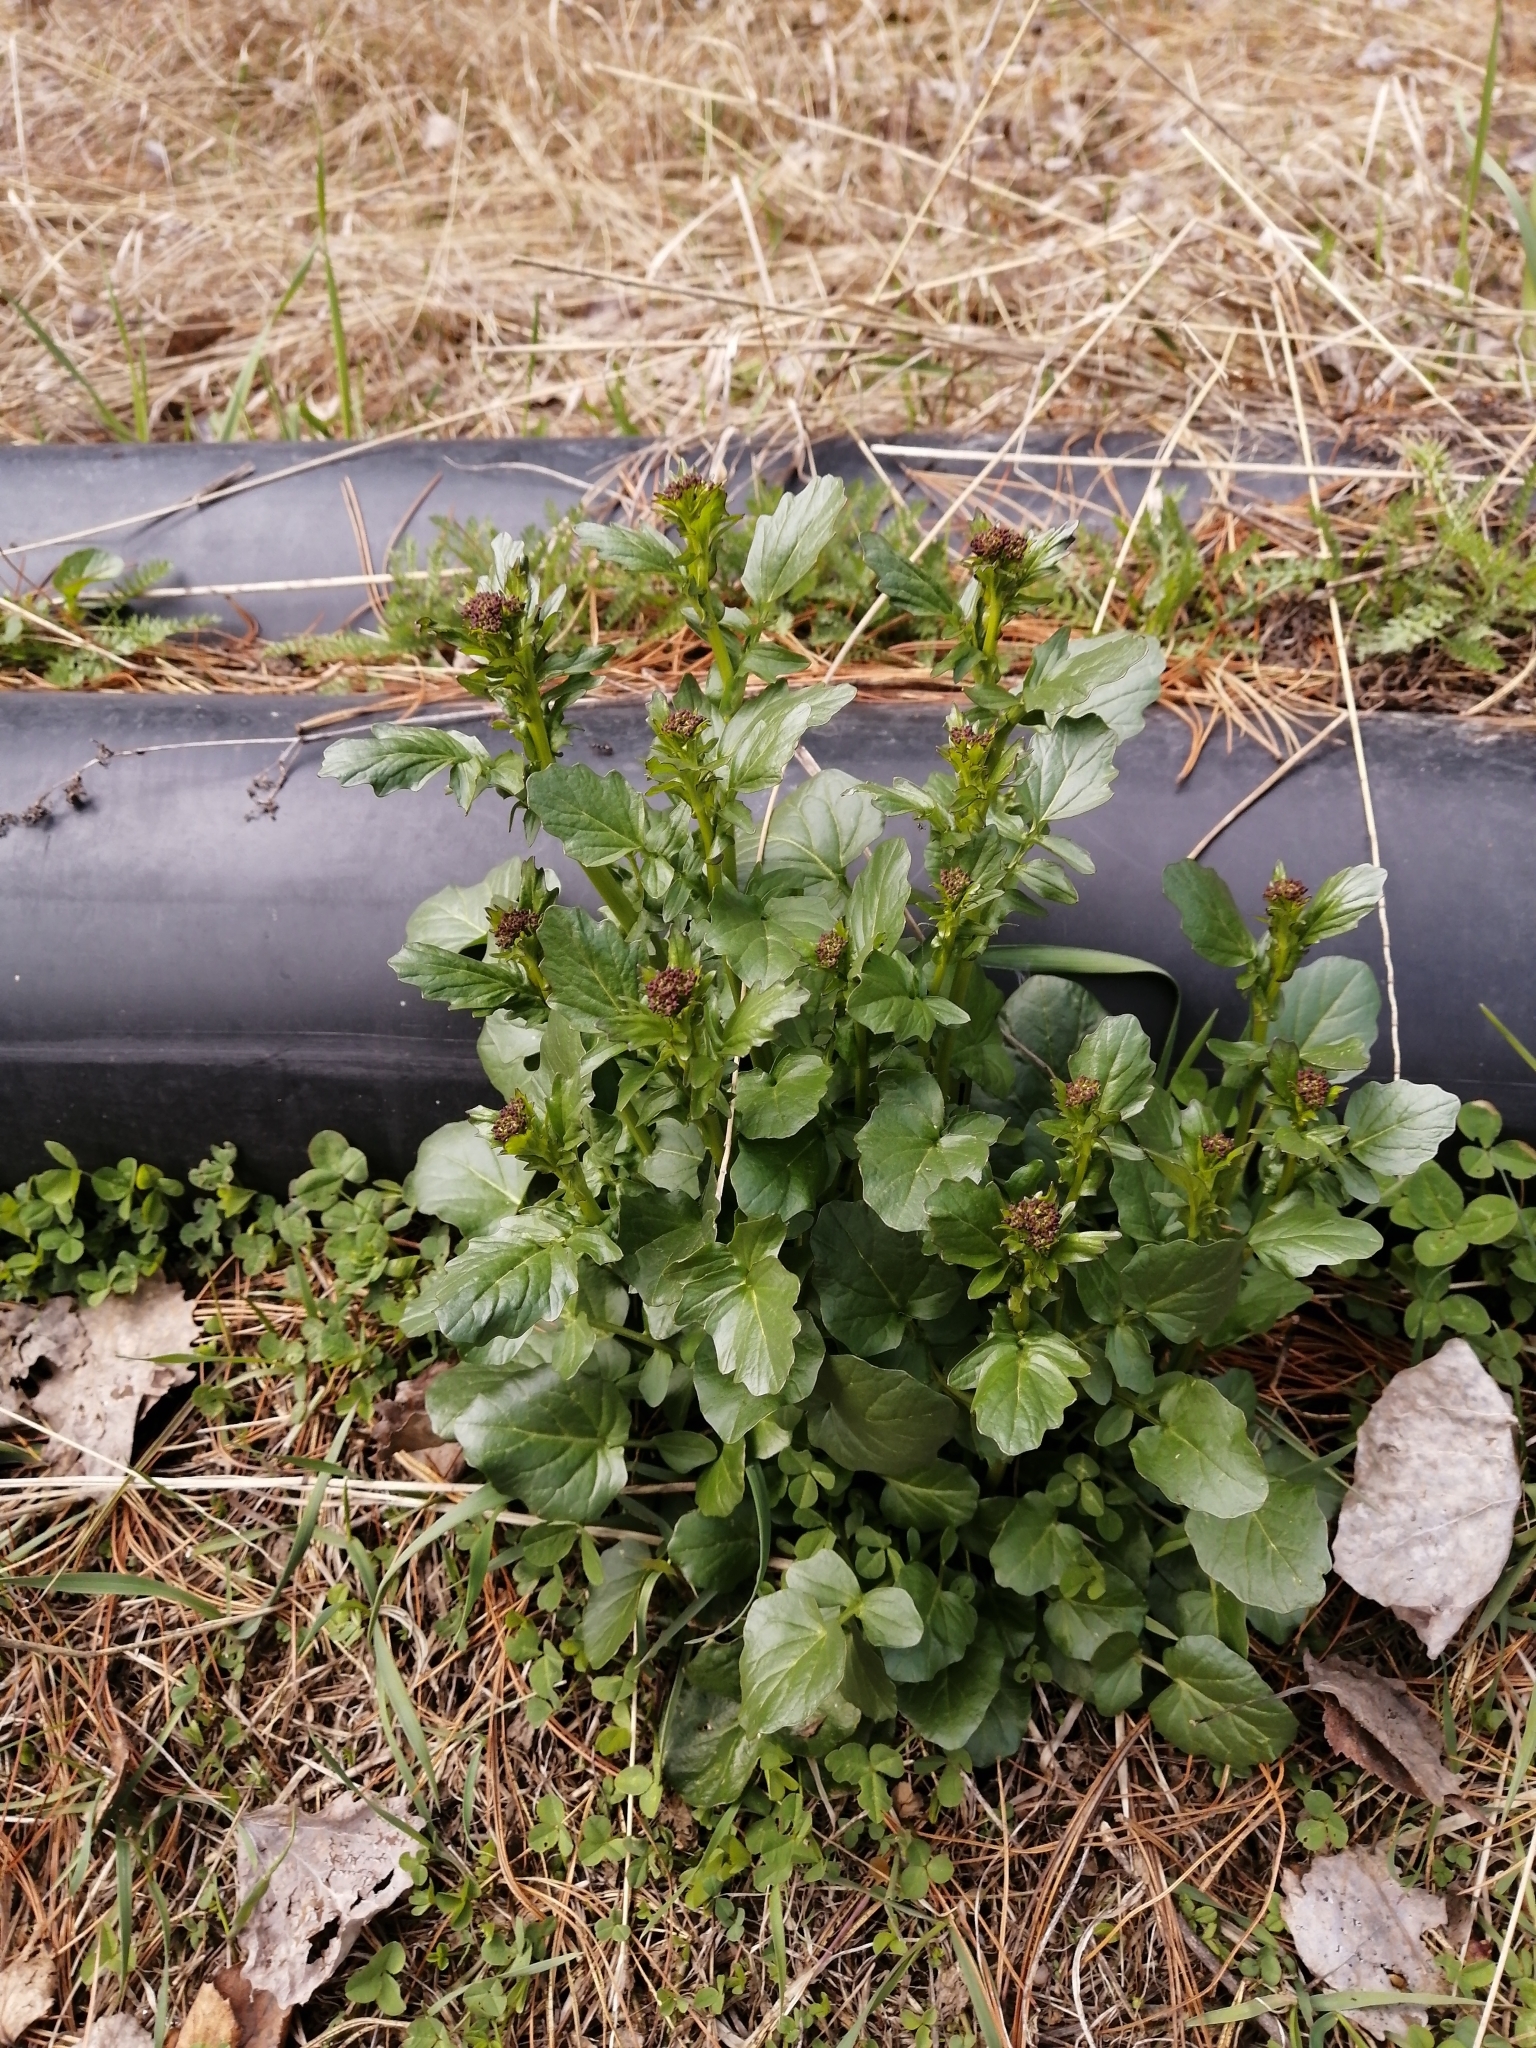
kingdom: Plantae
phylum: Tracheophyta
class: Magnoliopsida
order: Brassicales
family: Brassicaceae
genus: Barbarea
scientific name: Barbarea vulgaris
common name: Cressy-greens
